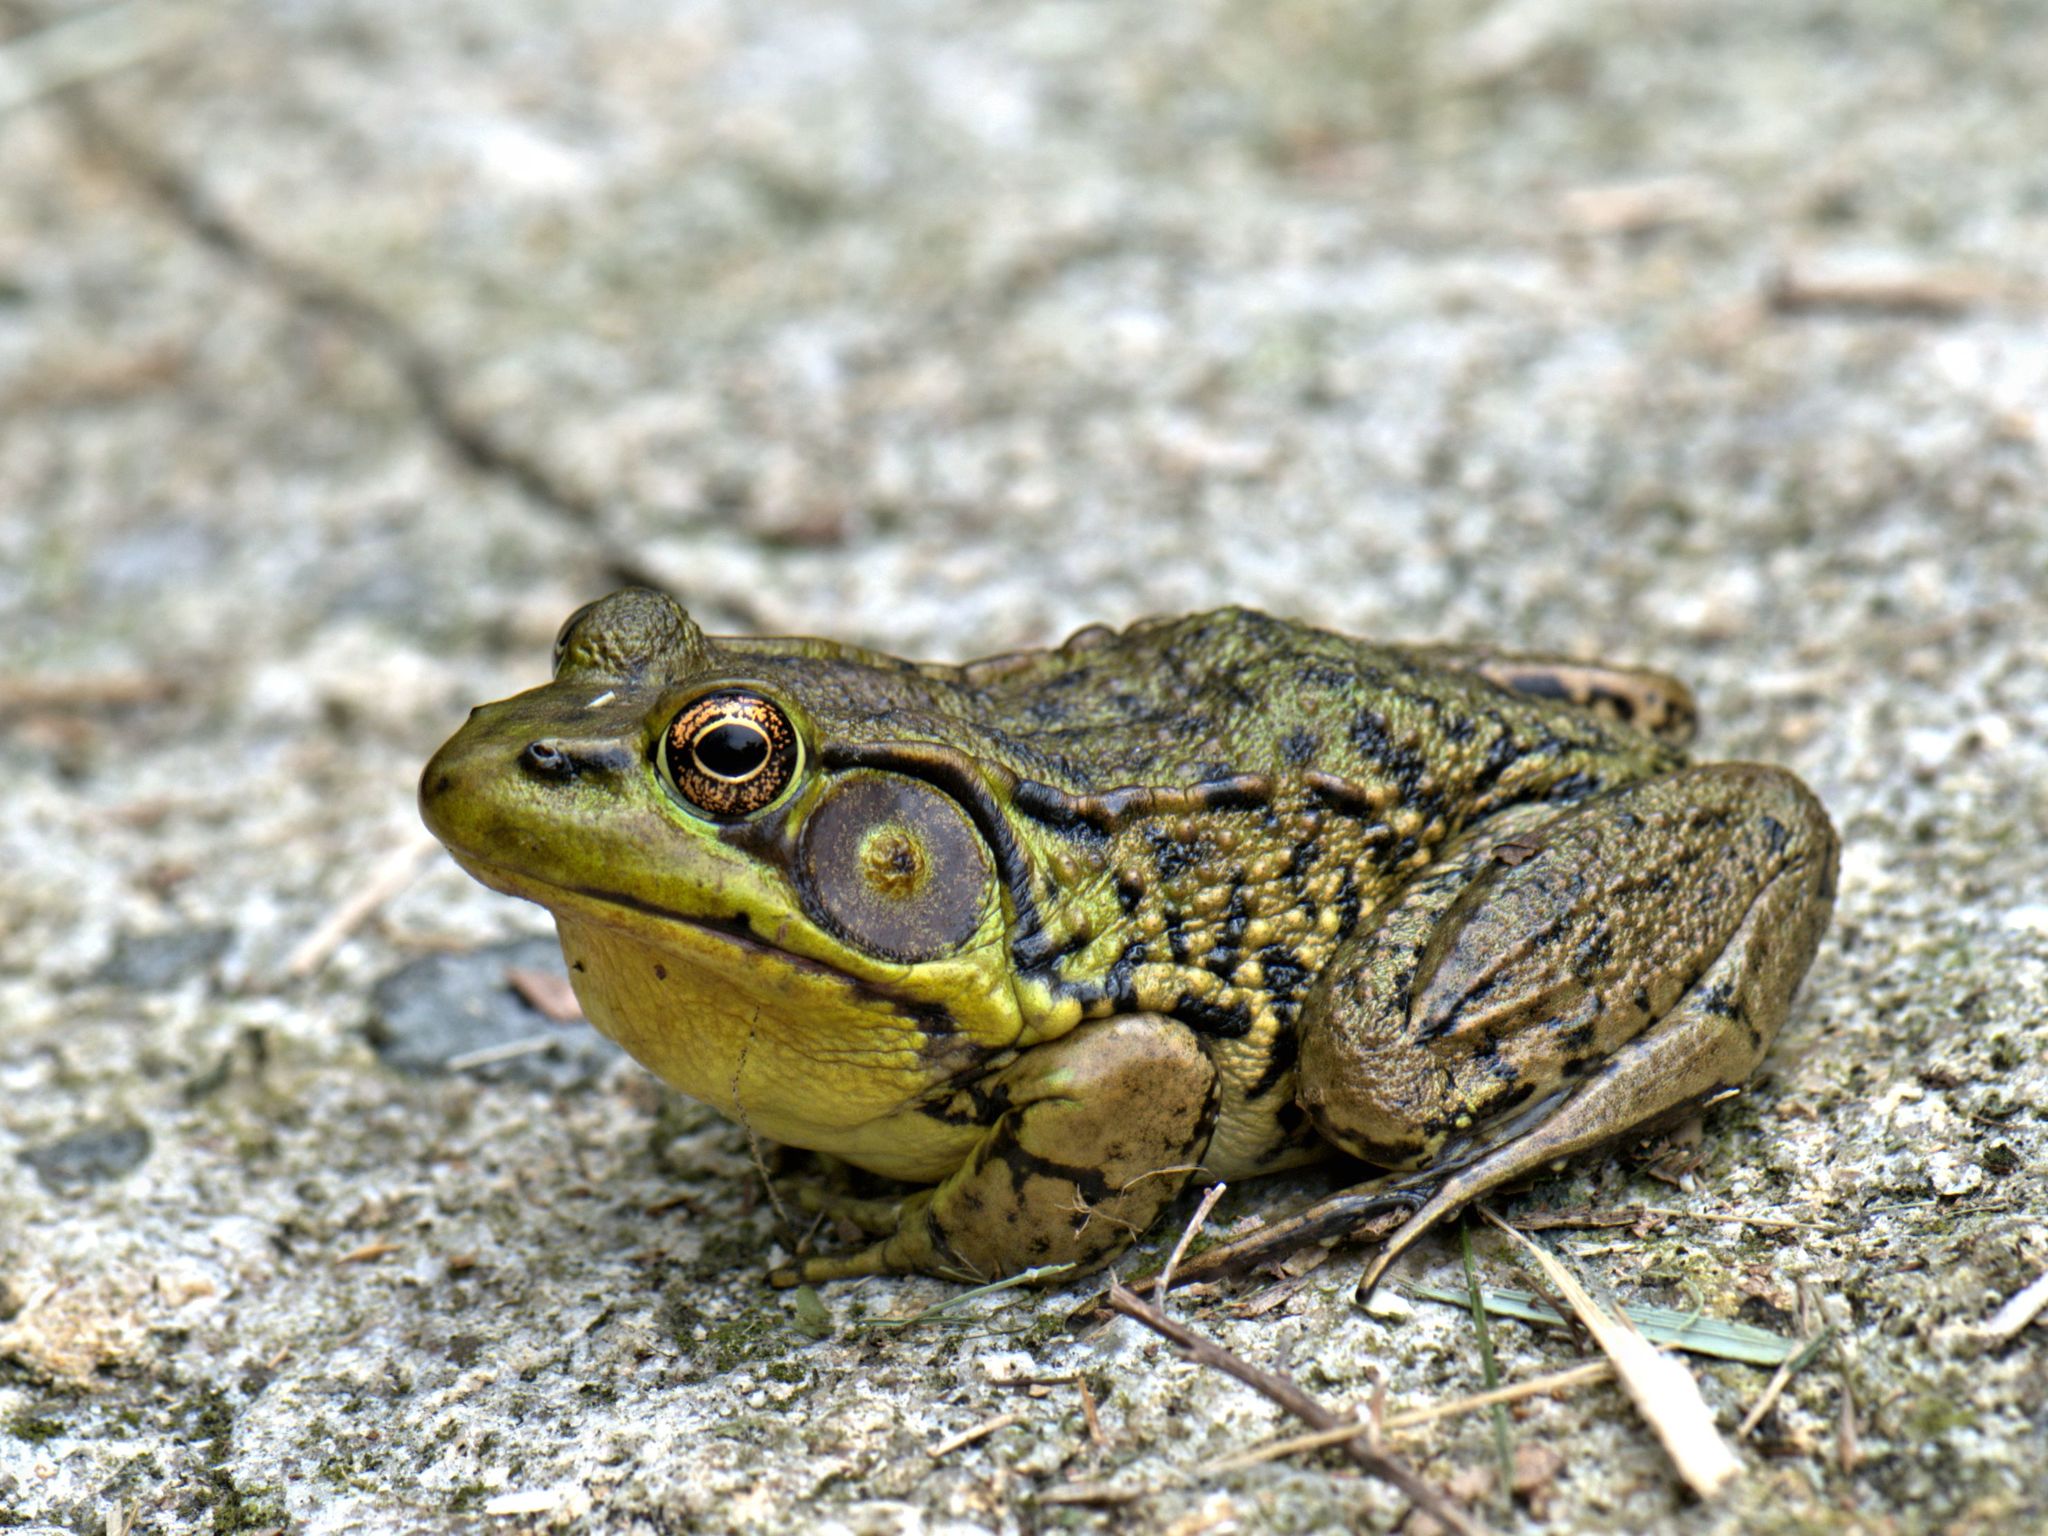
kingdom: Animalia
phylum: Chordata
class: Amphibia
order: Anura
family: Ranidae
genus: Lithobates
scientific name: Lithobates clamitans
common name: Green frog
